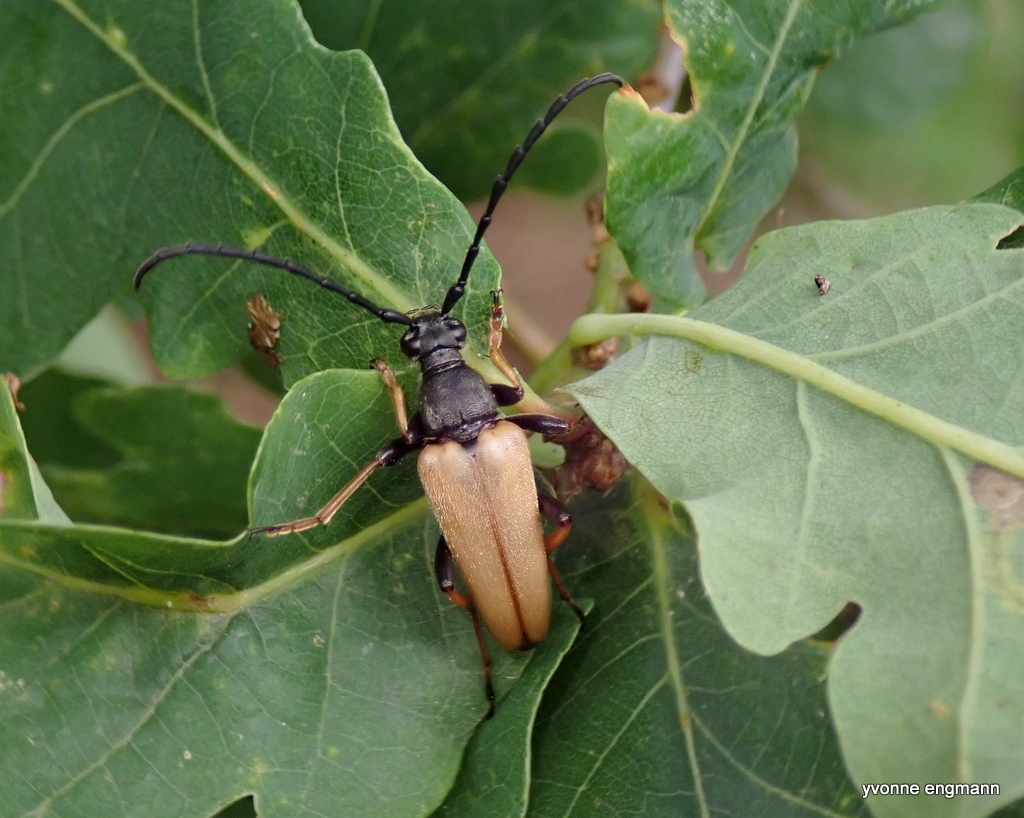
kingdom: Animalia
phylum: Arthropoda
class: Insecta
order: Coleoptera
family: Cerambycidae
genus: Stictoleptura
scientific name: Stictoleptura rubra
